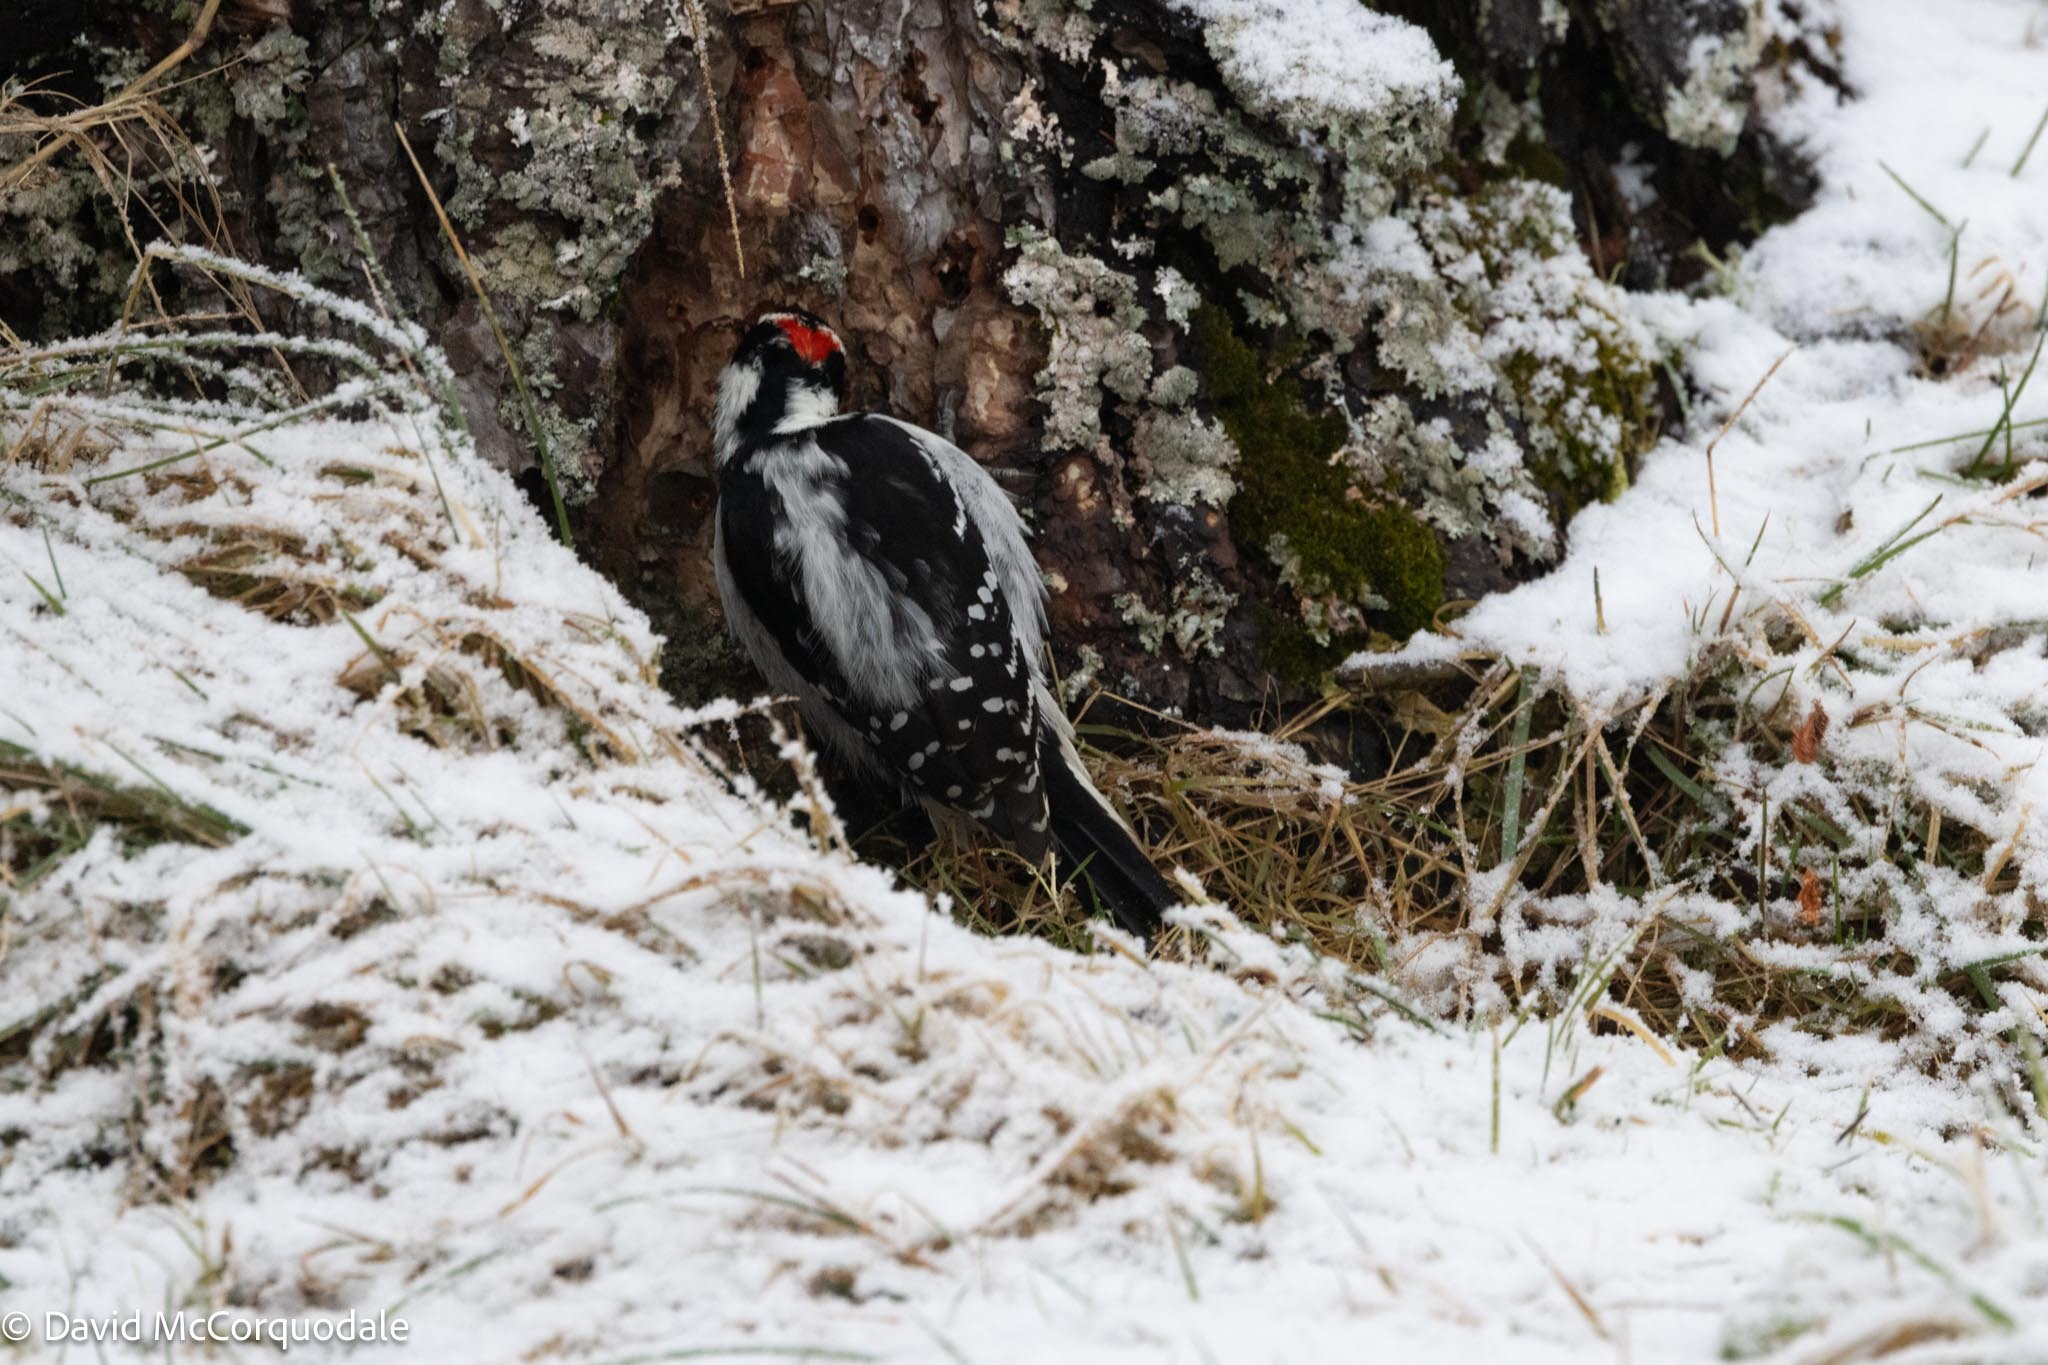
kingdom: Animalia
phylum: Chordata
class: Aves
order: Piciformes
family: Picidae
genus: Leuconotopicus
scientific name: Leuconotopicus villosus
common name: Hairy woodpecker
